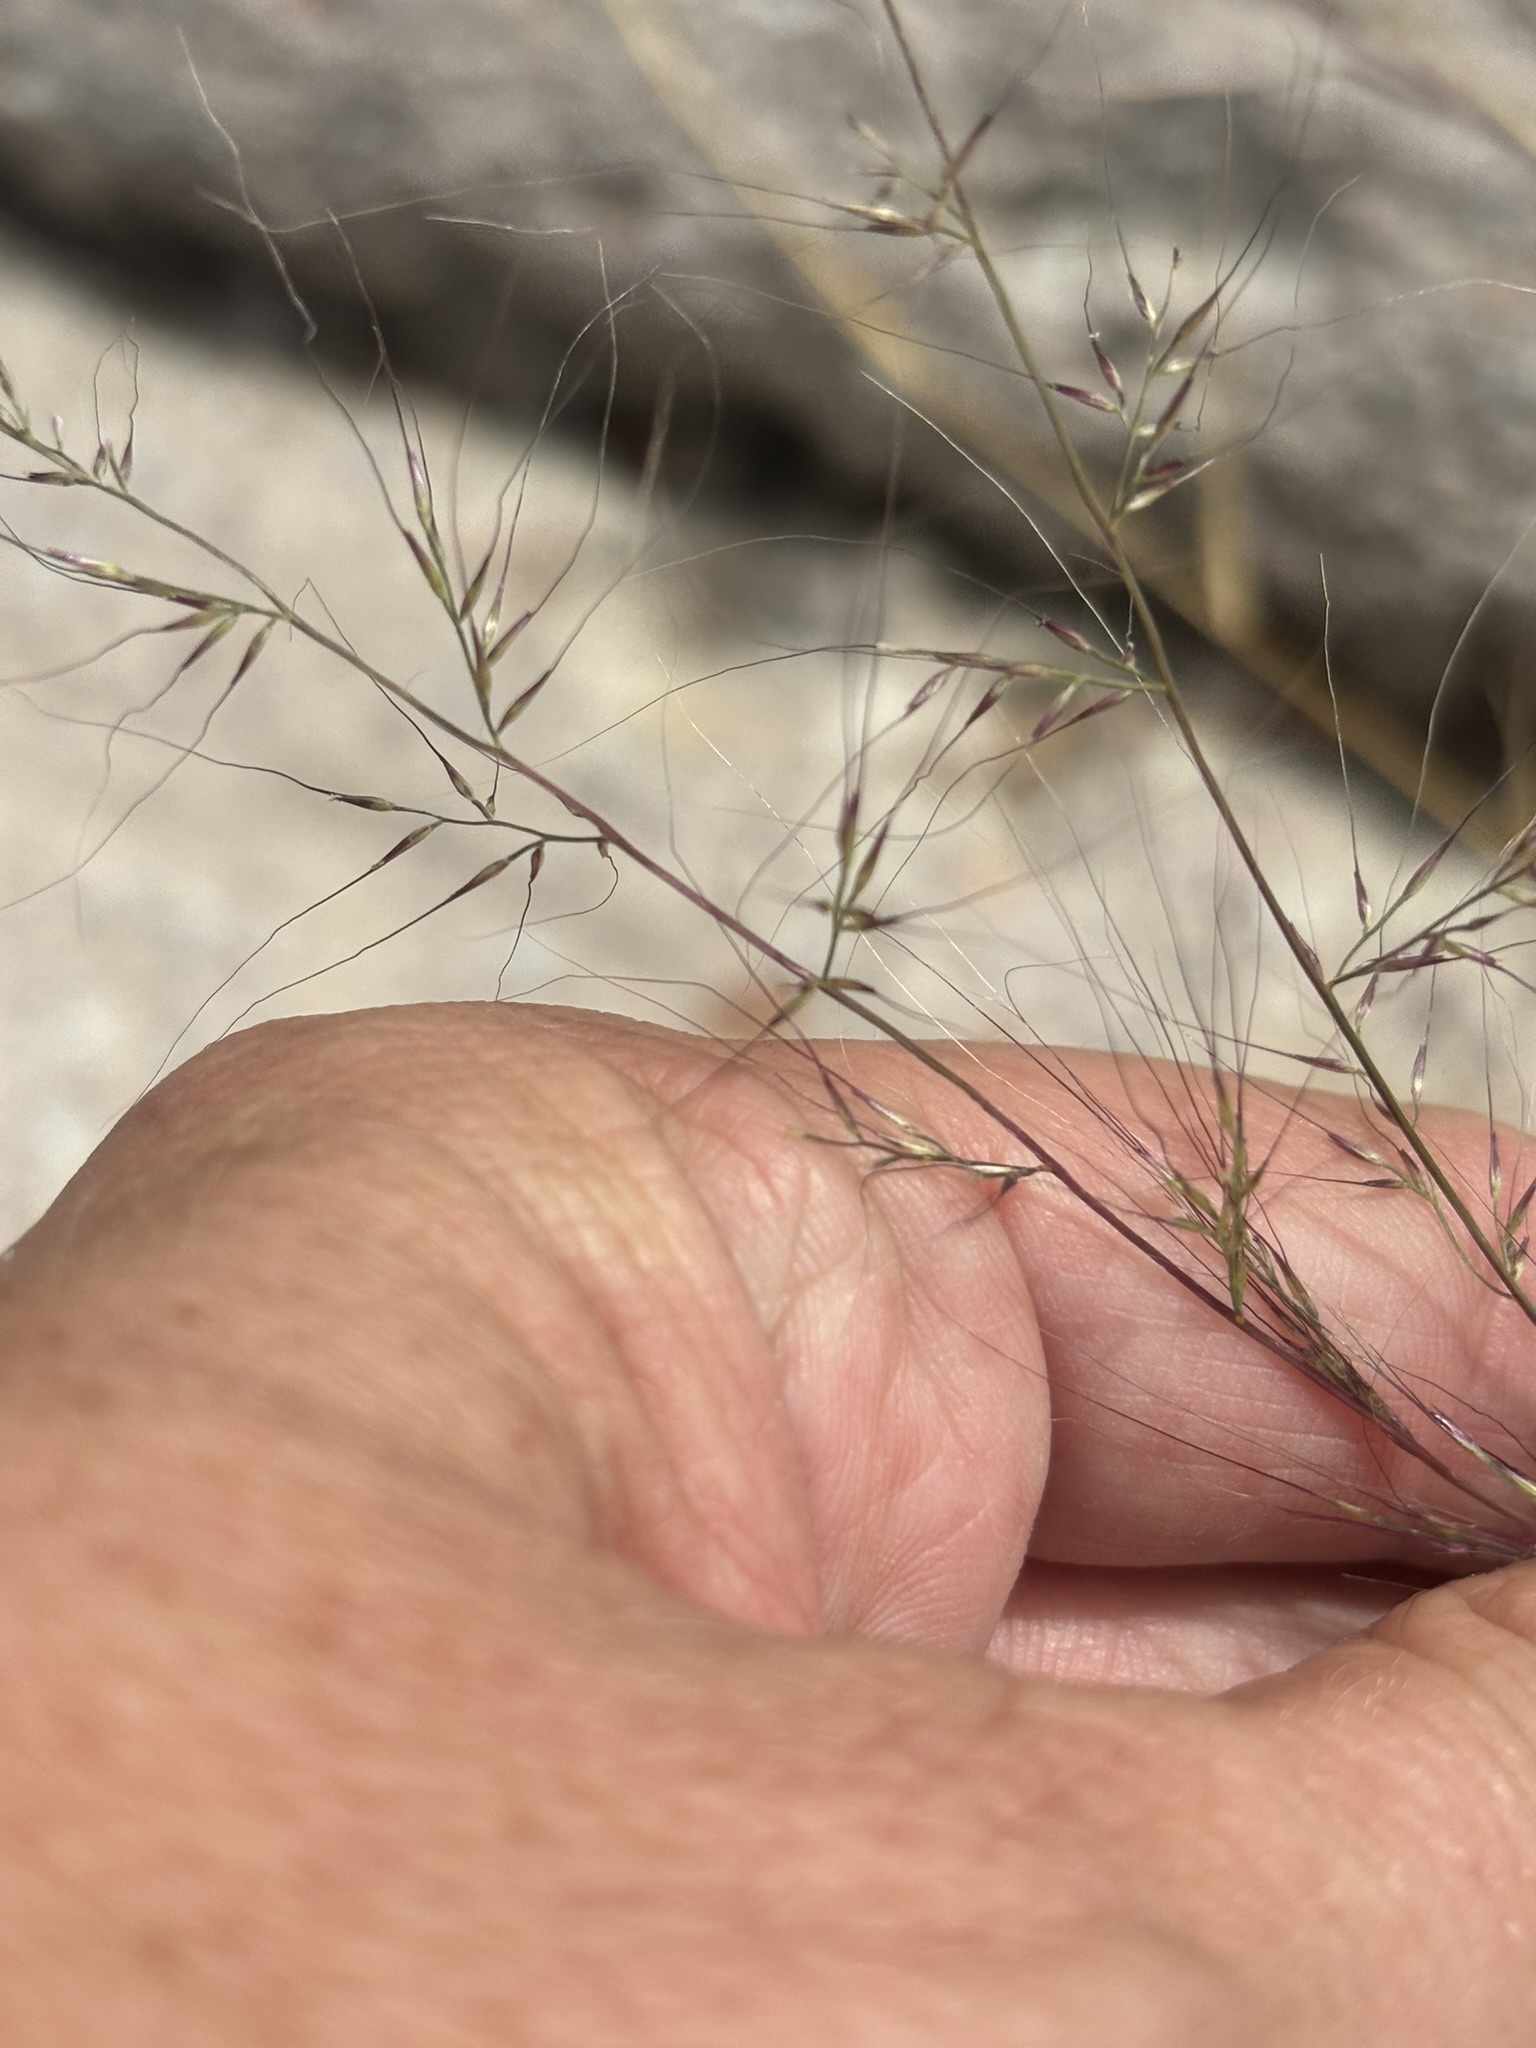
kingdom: Plantae
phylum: Tracheophyta
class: Liliopsida
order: Poales
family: Poaceae
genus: Muhlenbergia
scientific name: Muhlenbergia microsperma
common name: Littleseed muhly
